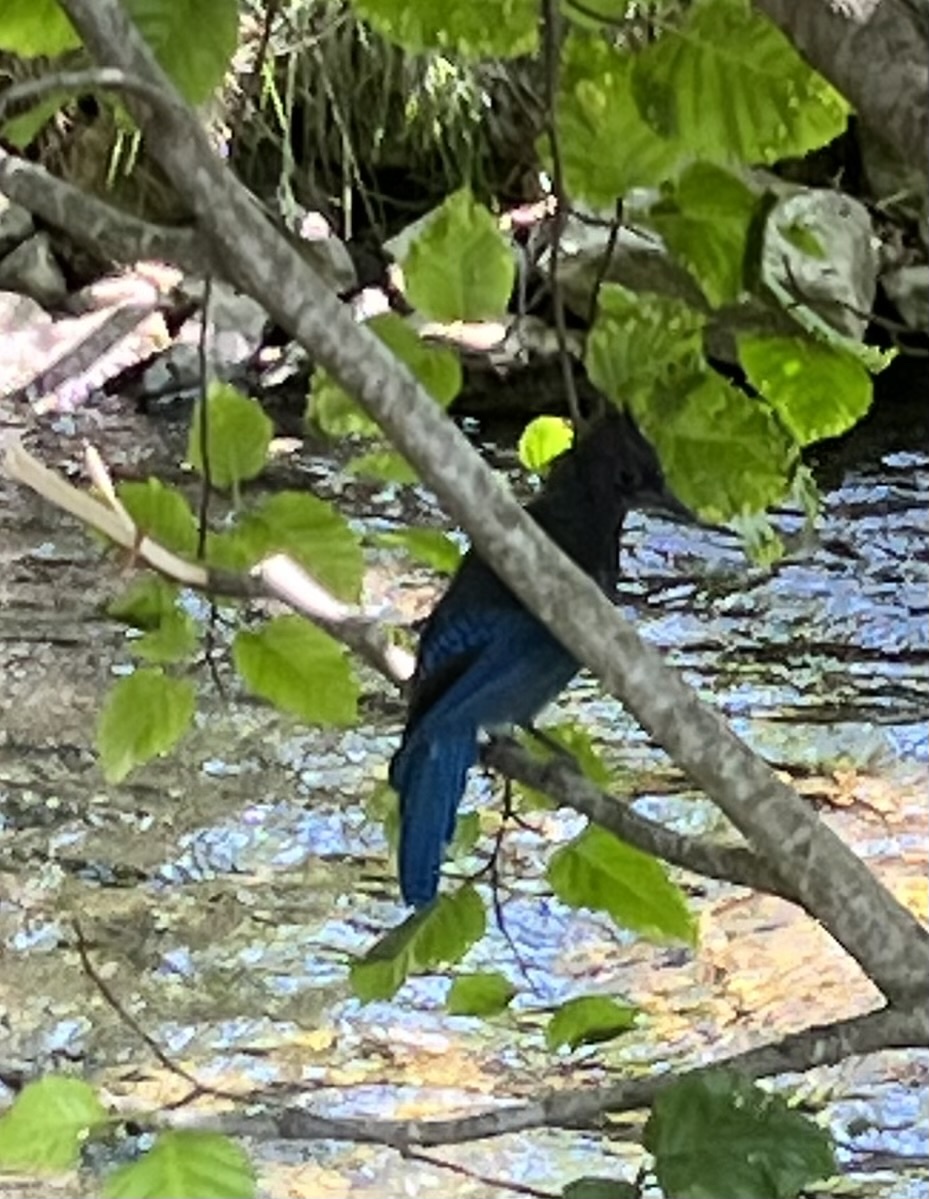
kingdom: Animalia
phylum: Chordata
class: Aves
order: Passeriformes
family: Corvidae
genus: Cyanocitta
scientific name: Cyanocitta stelleri
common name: Steller's jay
